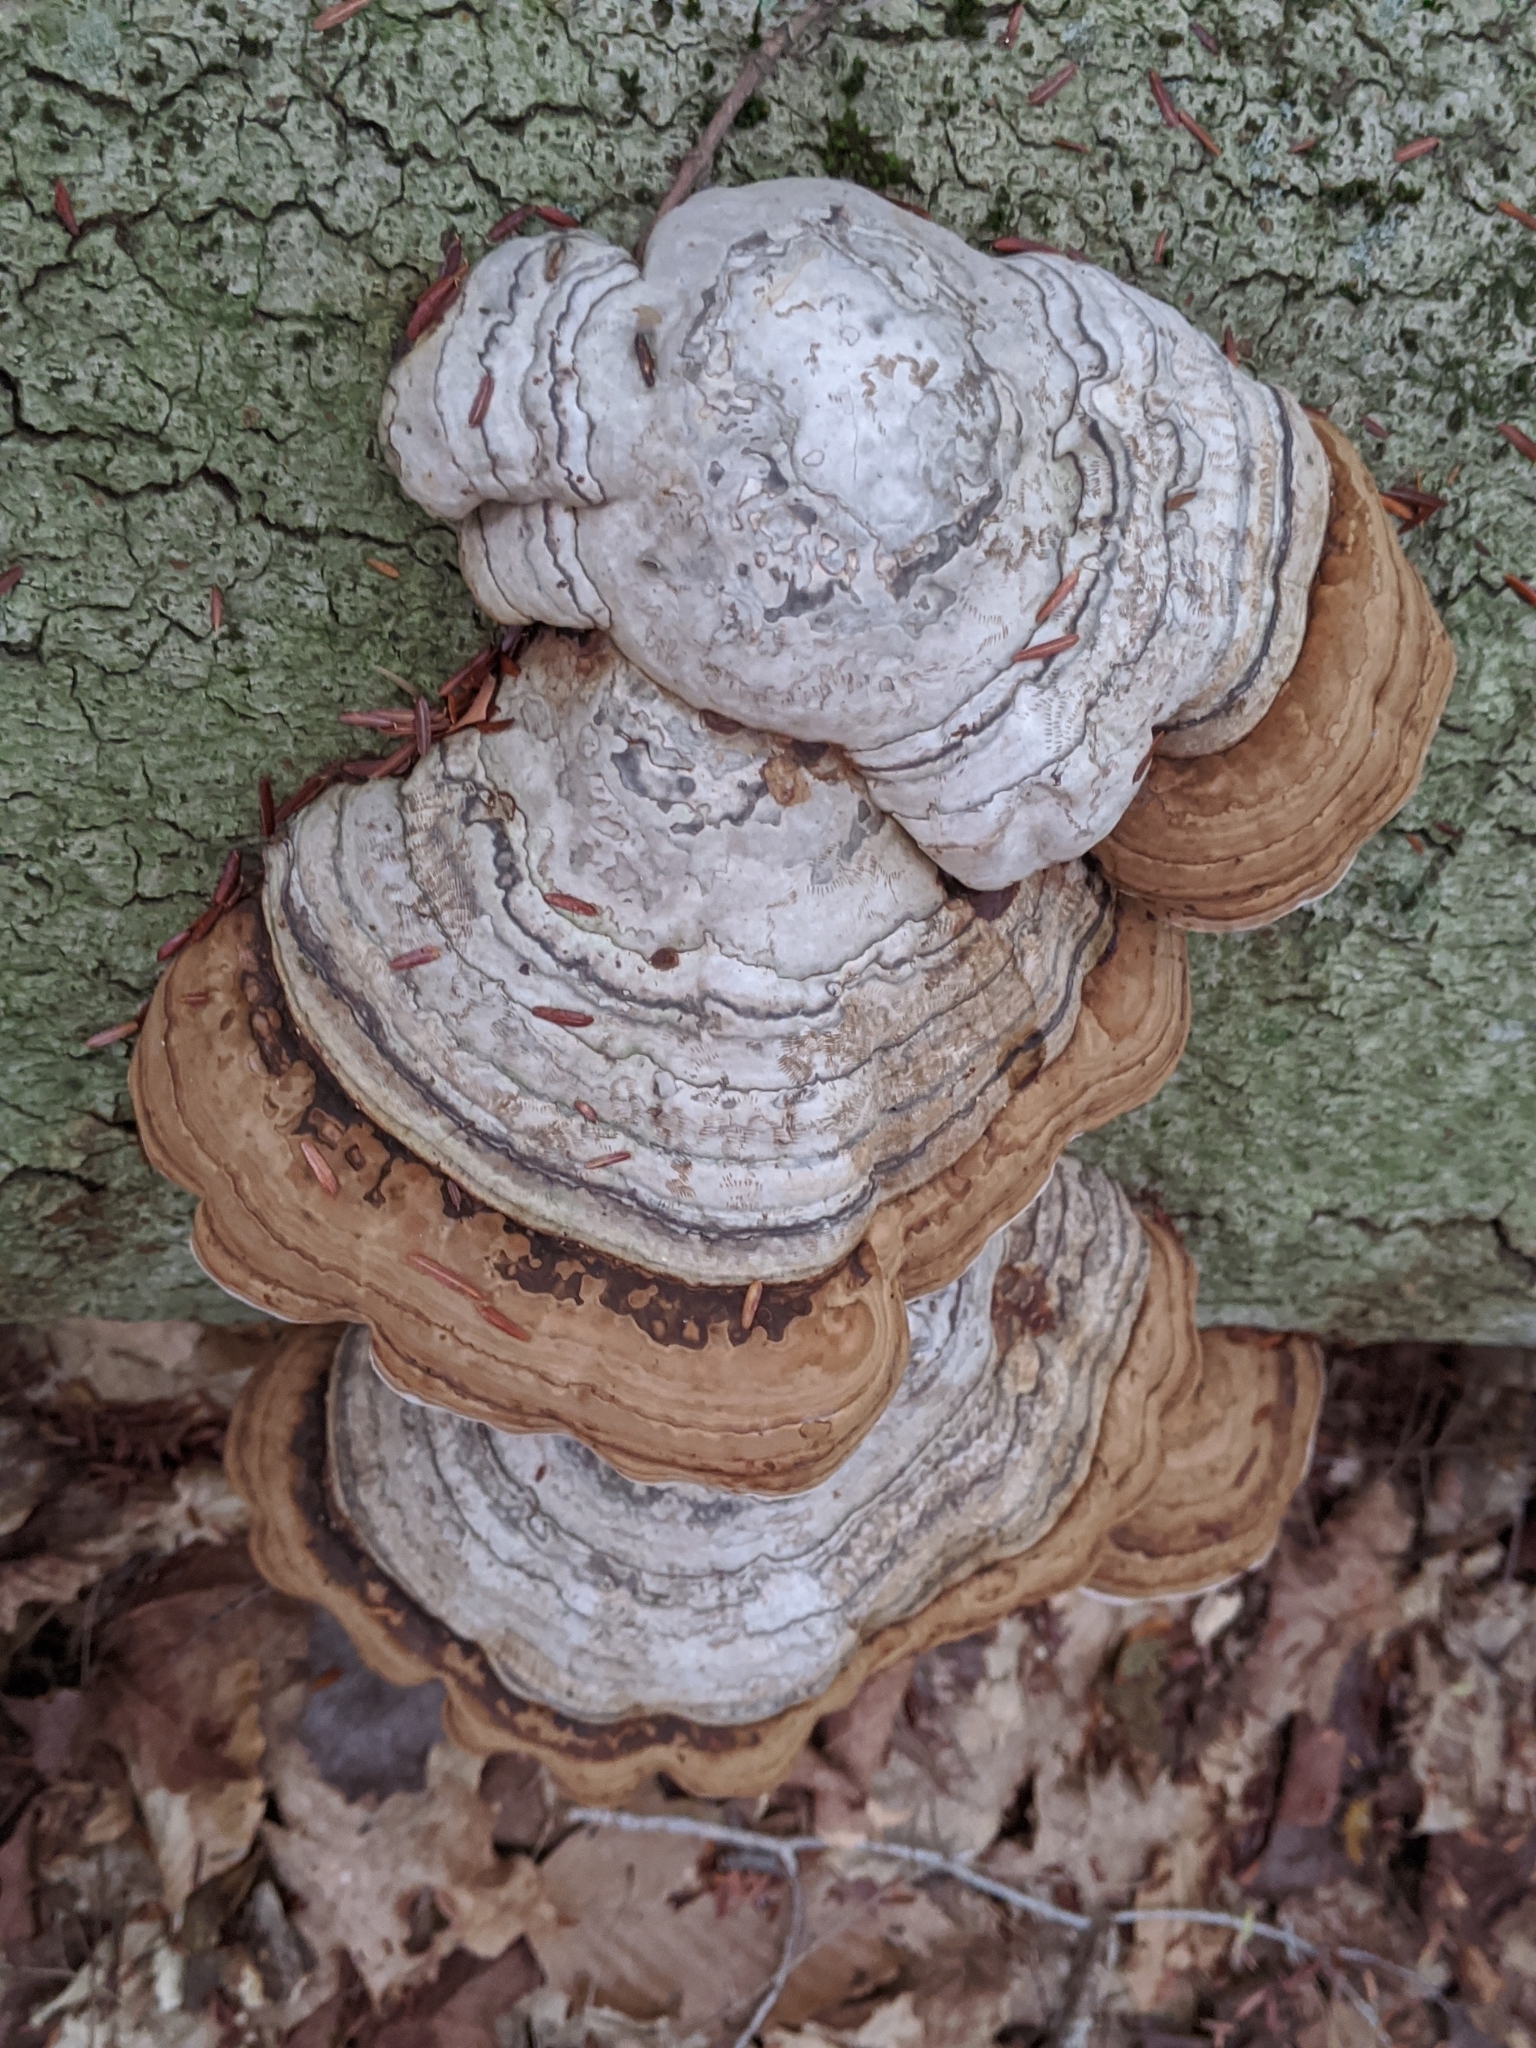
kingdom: Fungi
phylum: Basidiomycota
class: Agaricomycetes
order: Polyporales
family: Polyporaceae
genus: Fomes
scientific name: Fomes fomentarius
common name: Hoof fungus
